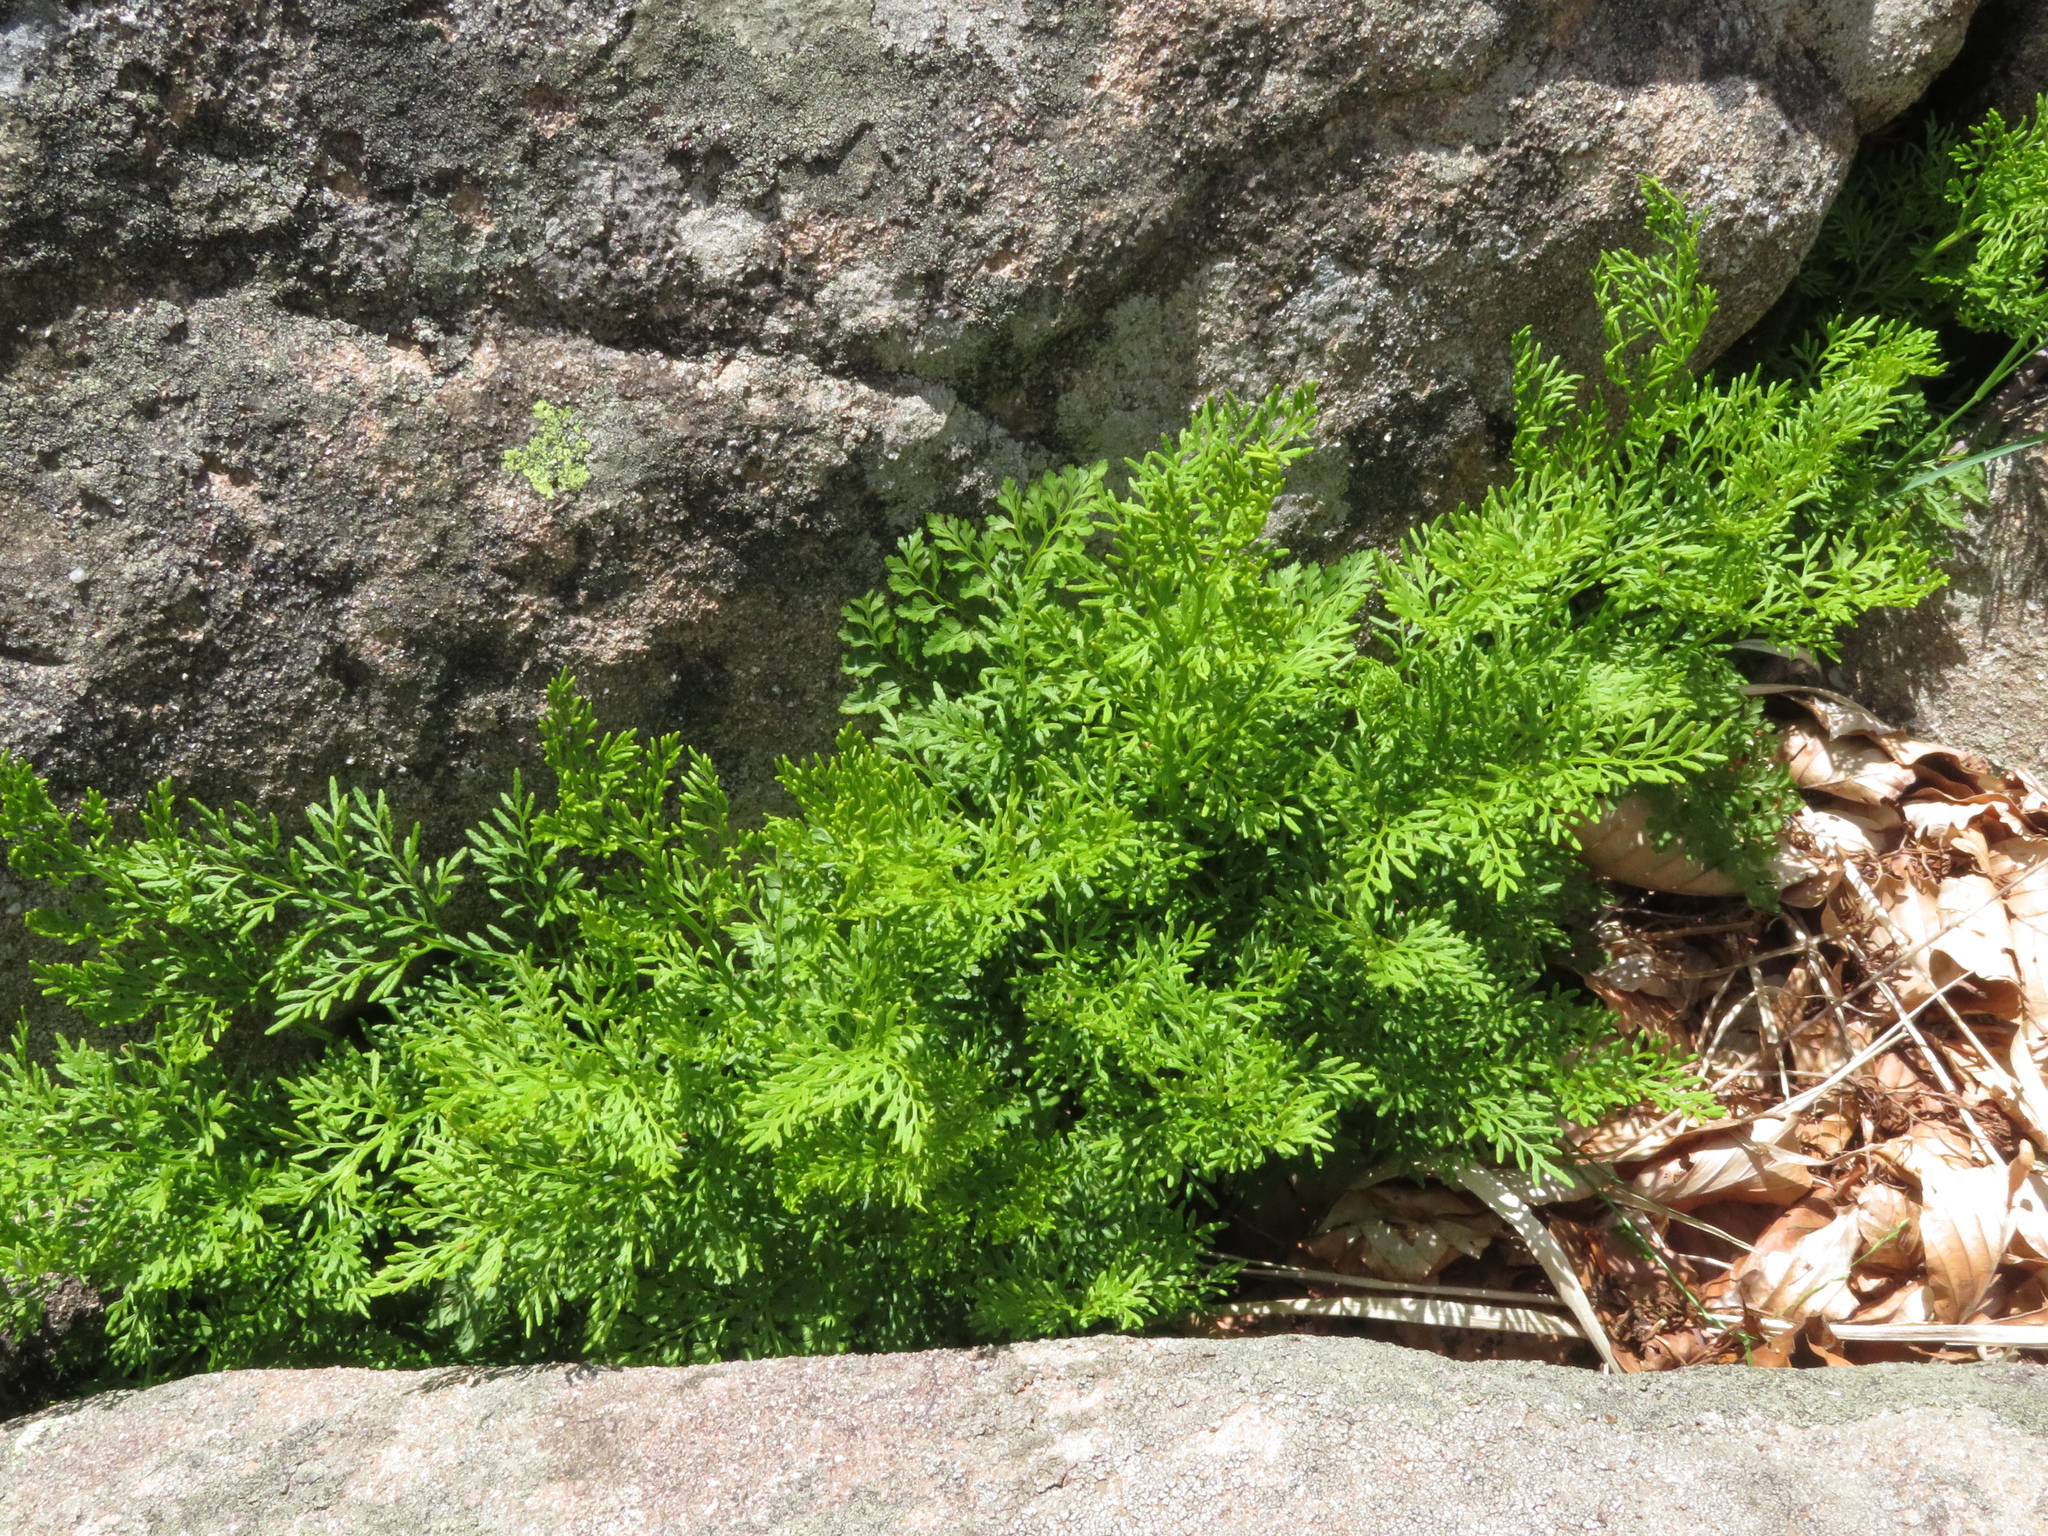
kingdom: Plantae
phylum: Tracheophyta
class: Polypodiopsida
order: Polypodiales
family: Pteridaceae
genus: Cryptogramma
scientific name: Cryptogramma crispa
